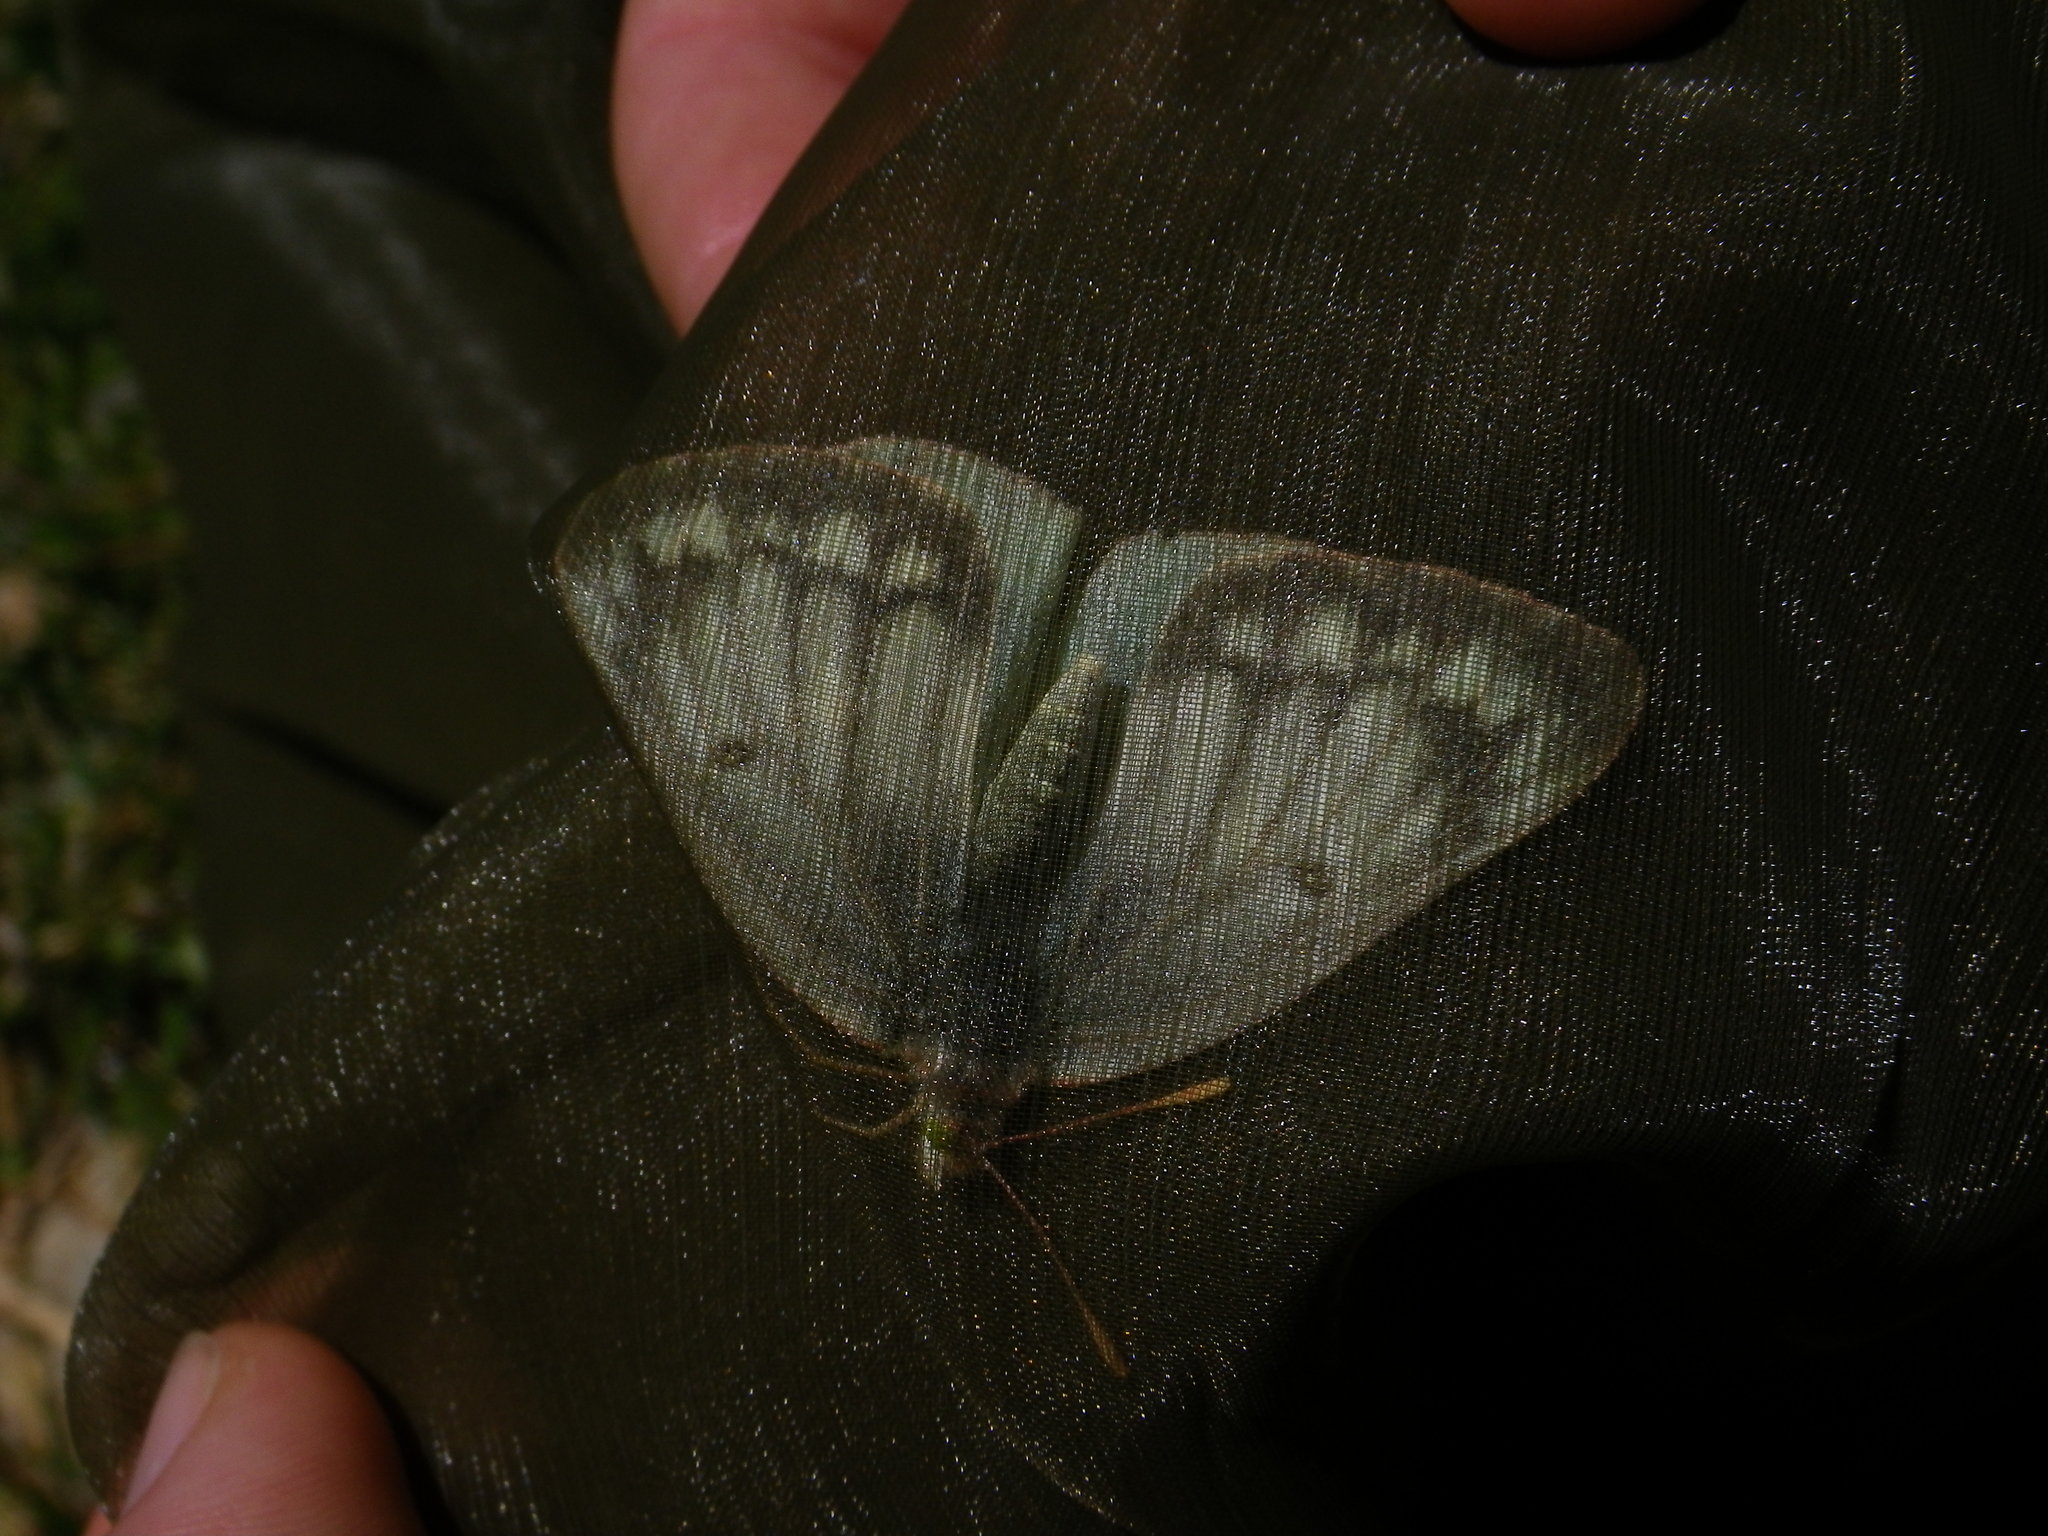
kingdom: Animalia
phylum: Arthropoda
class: Insecta
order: Lepidoptera
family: Pieridae
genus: Colias
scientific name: Colias phicomone
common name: Mountain clouded yellow
